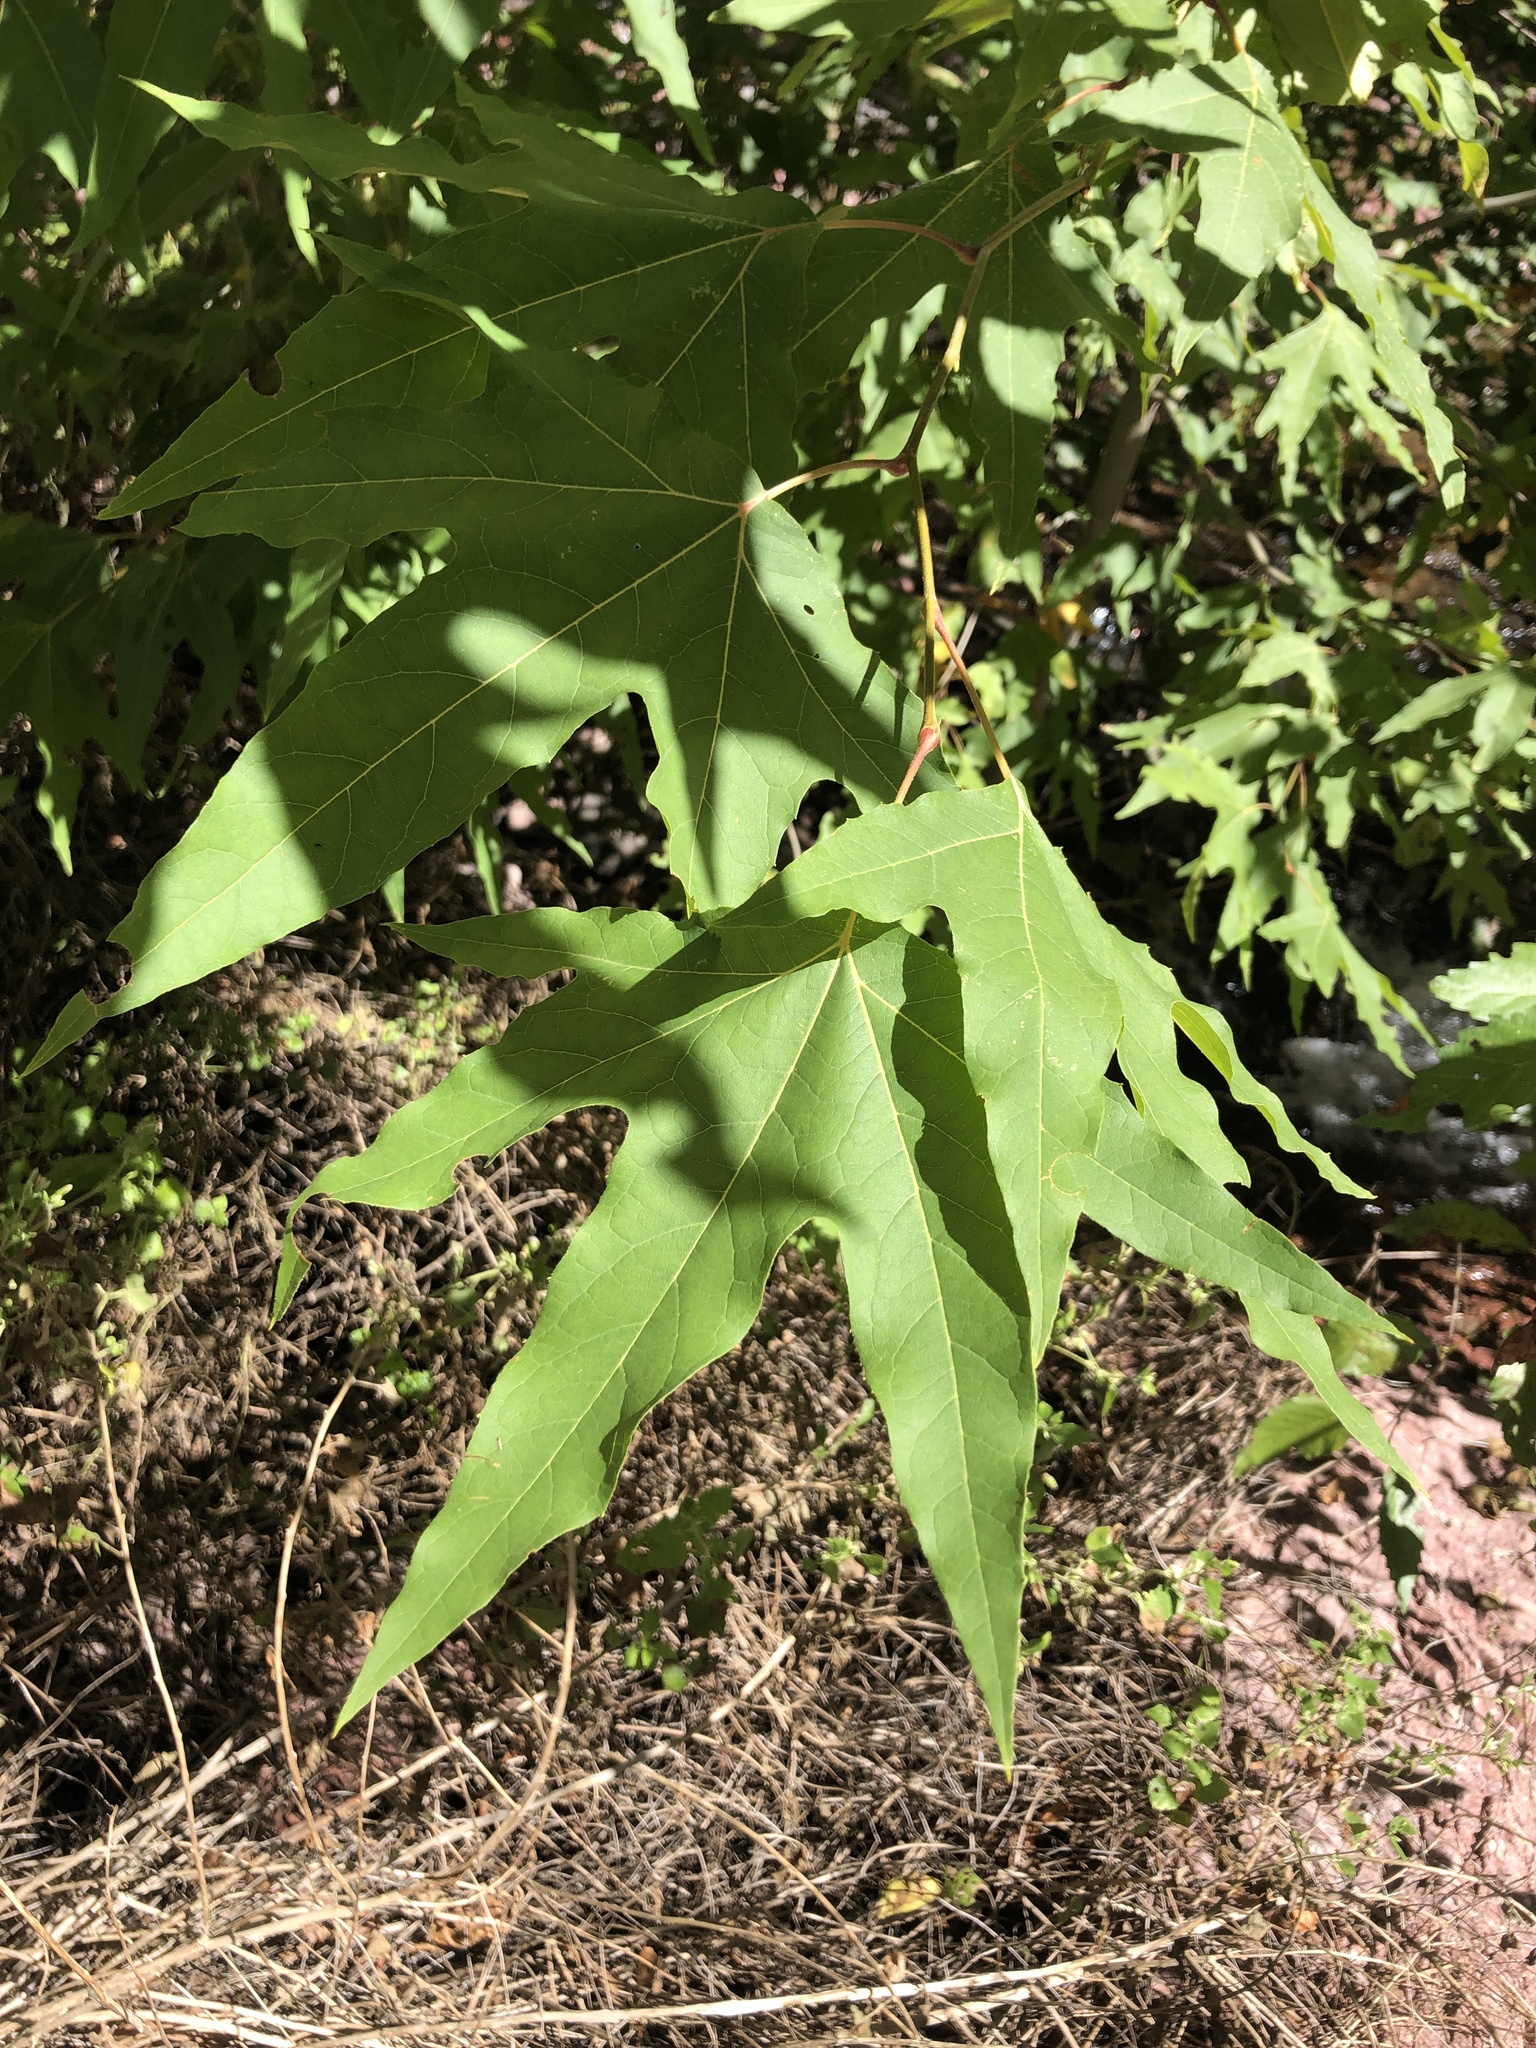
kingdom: Plantae
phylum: Tracheophyta
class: Magnoliopsida
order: Proteales
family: Platanaceae
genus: Platanus
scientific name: Platanus wrightii
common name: Arizona sycamore
